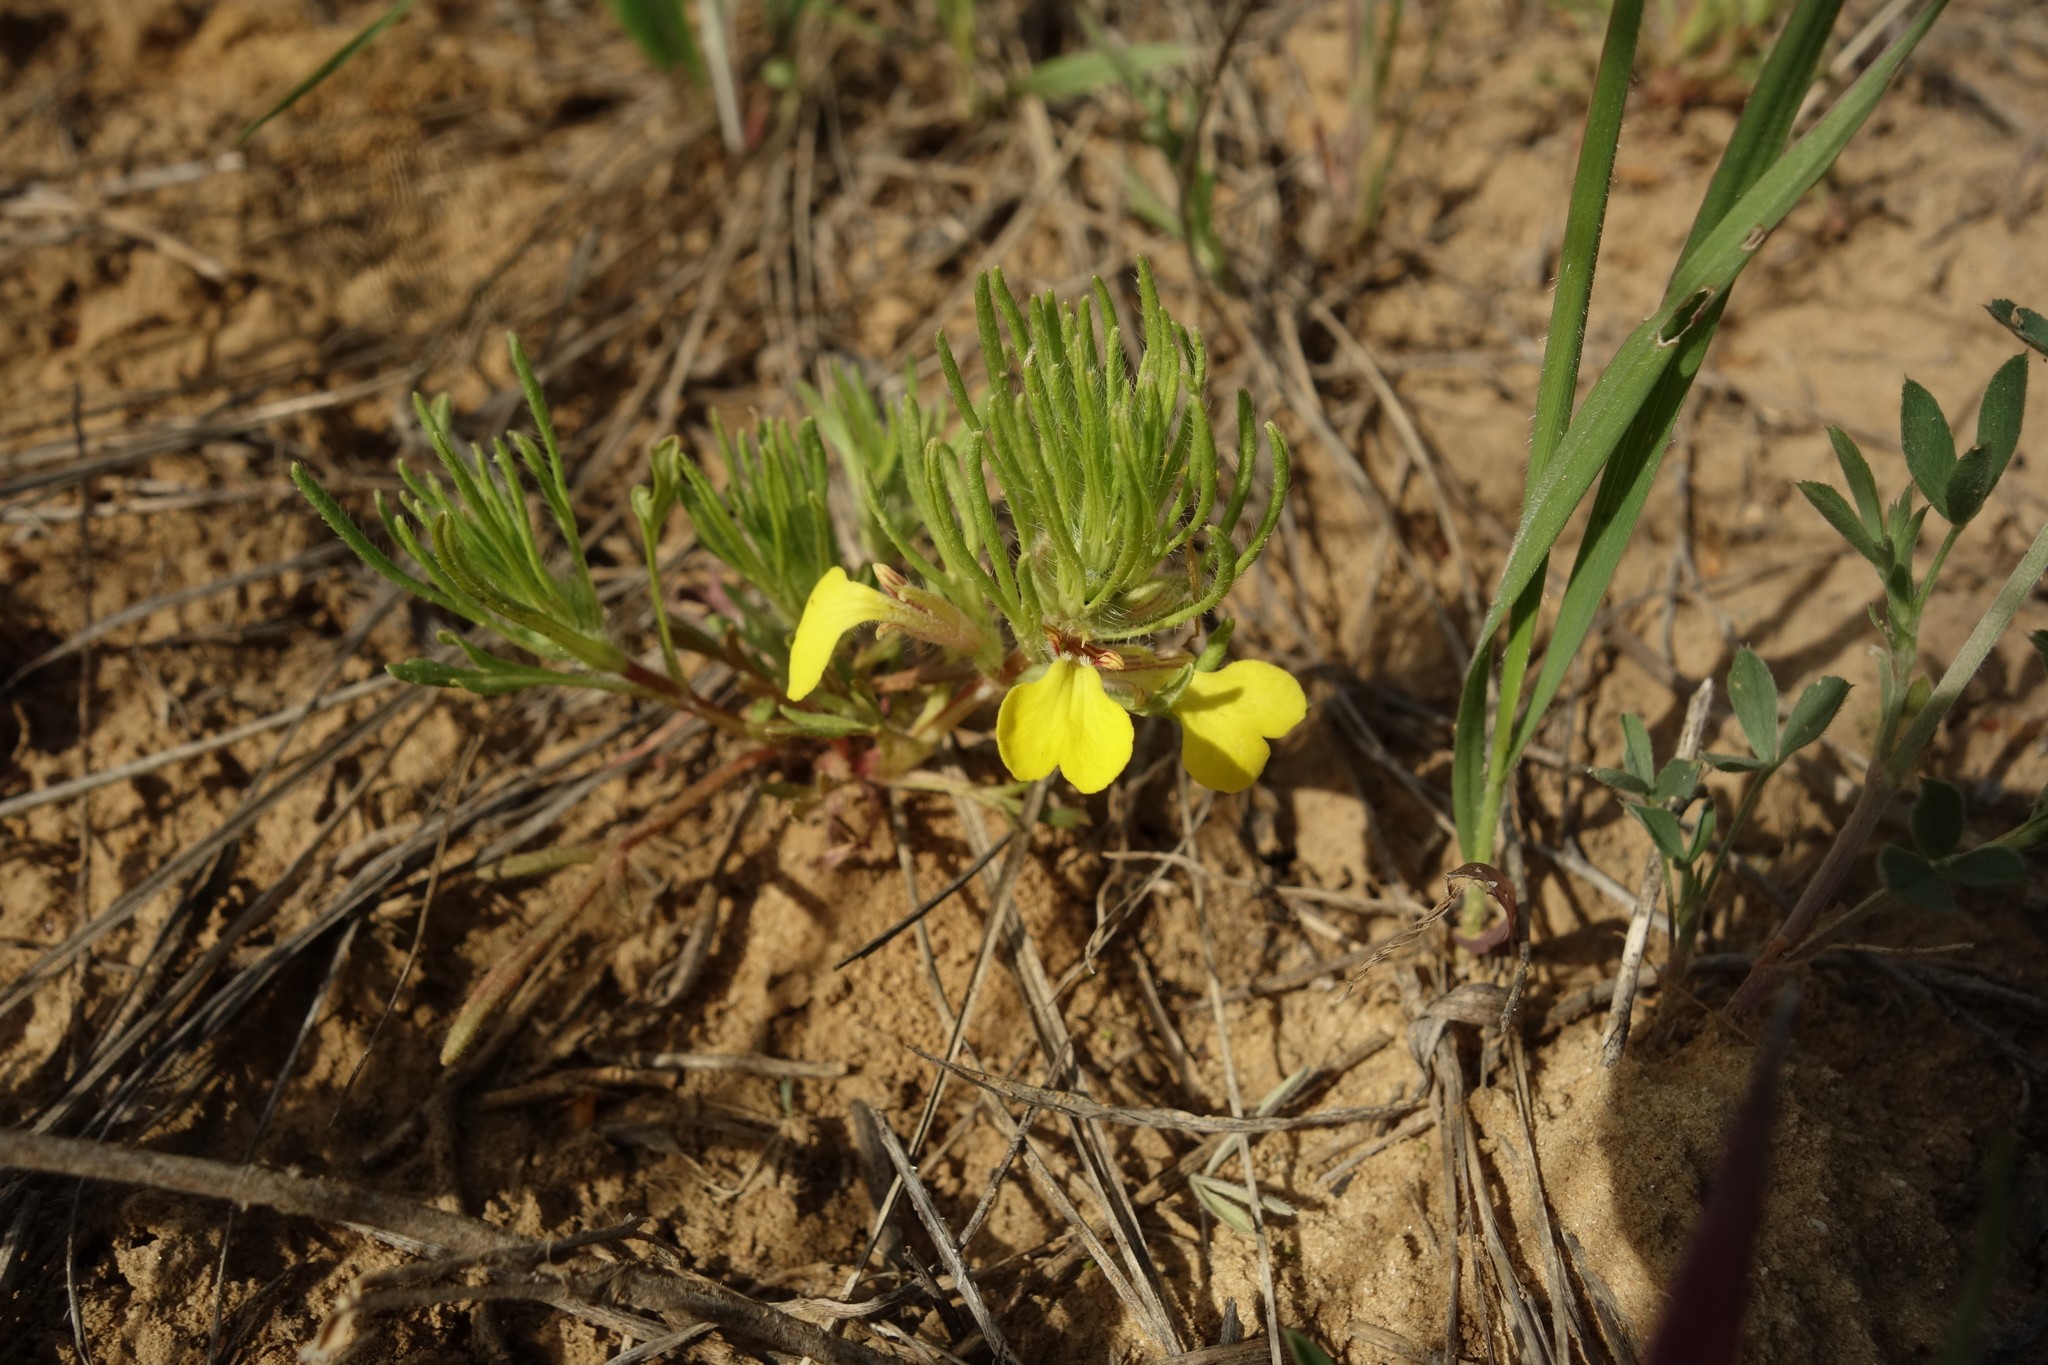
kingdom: Plantae
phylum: Tracheophyta
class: Magnoliopsida
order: Lamiales
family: Lamiaceae
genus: Ajuga
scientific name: Ajuga chamaepitys
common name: Ground-pine
